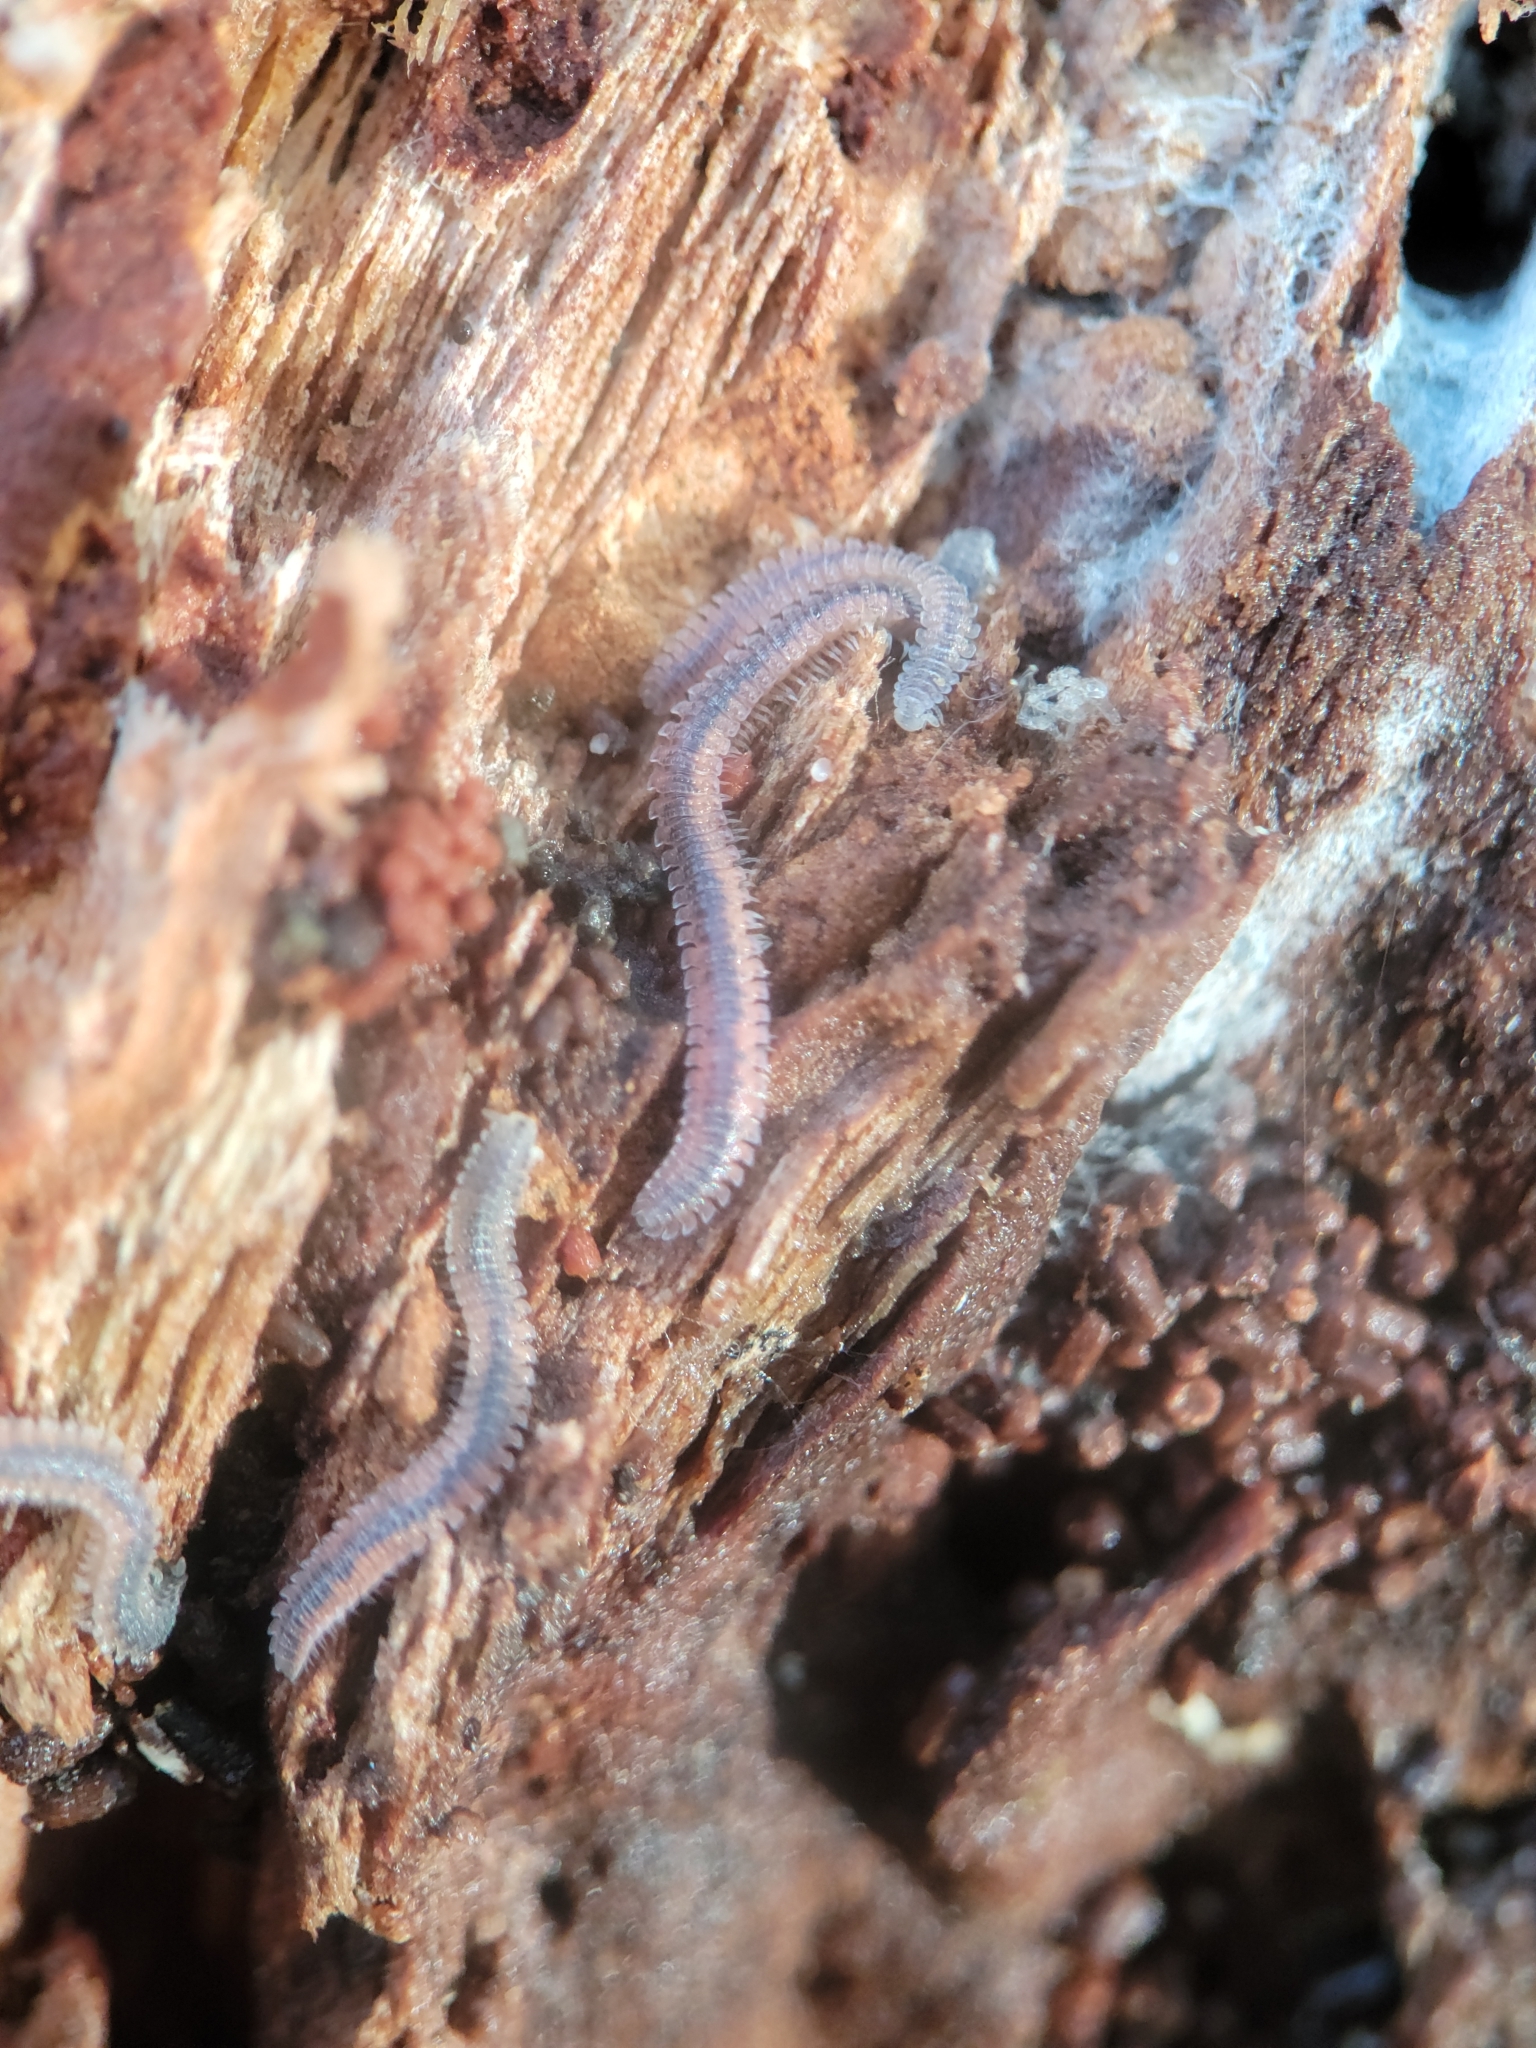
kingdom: Animalia
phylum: Arthropoda
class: Diplopoda
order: Platydesmida
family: Andrognathidae
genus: Gosodesmus
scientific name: Gosodesmus claremontus
